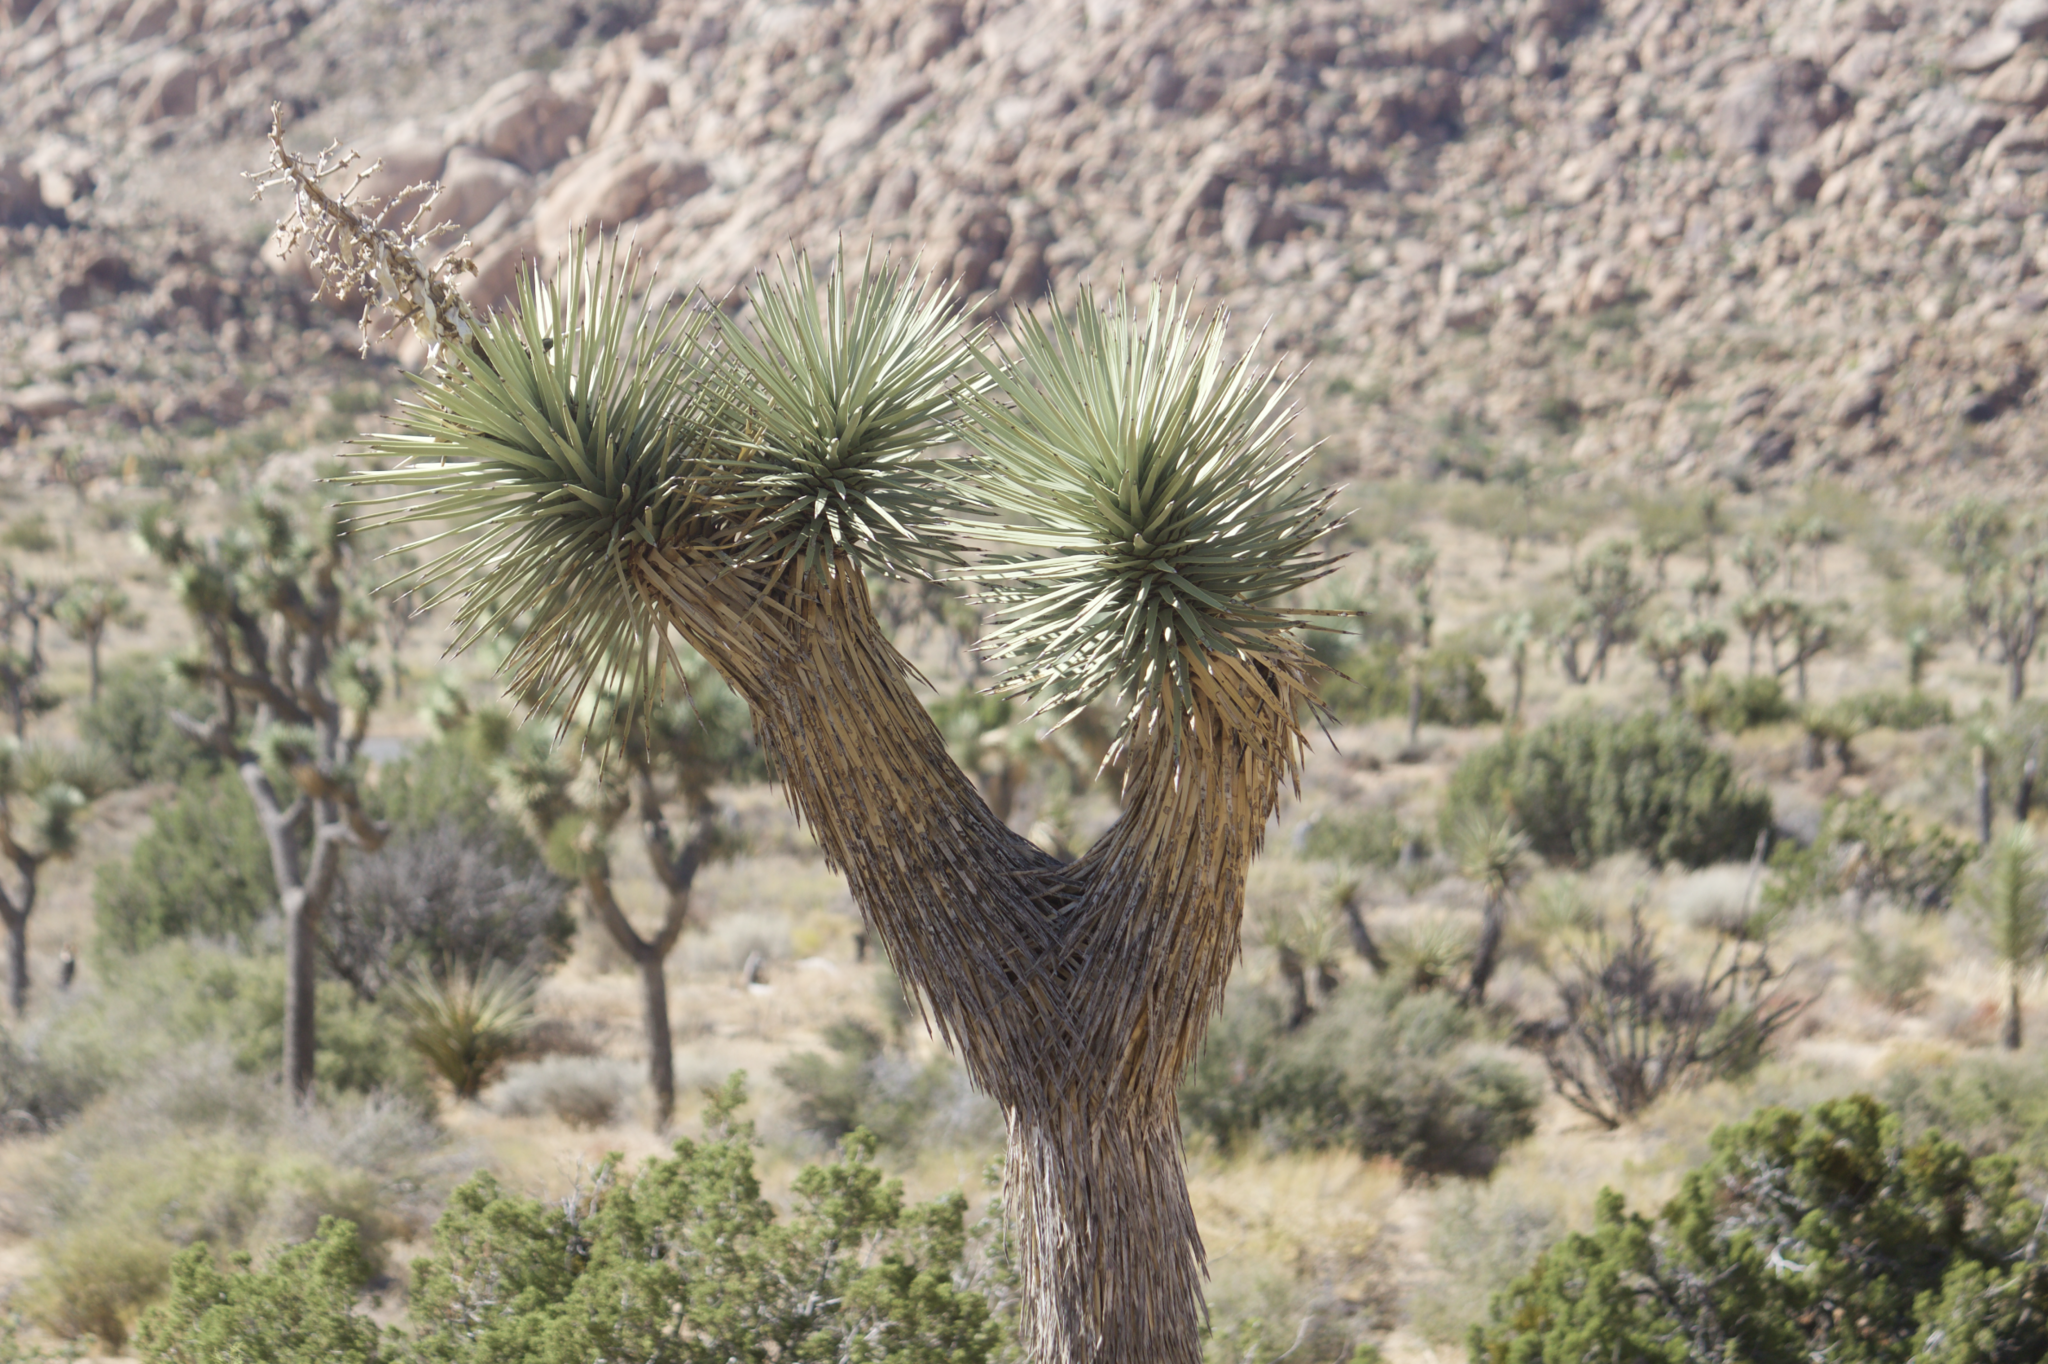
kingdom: Plantae
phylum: Tracheophyta
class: Liliopsida
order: Asparagales
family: Asparagaceae
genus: Yucca
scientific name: Yucca brevifolia
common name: Joshua tree
